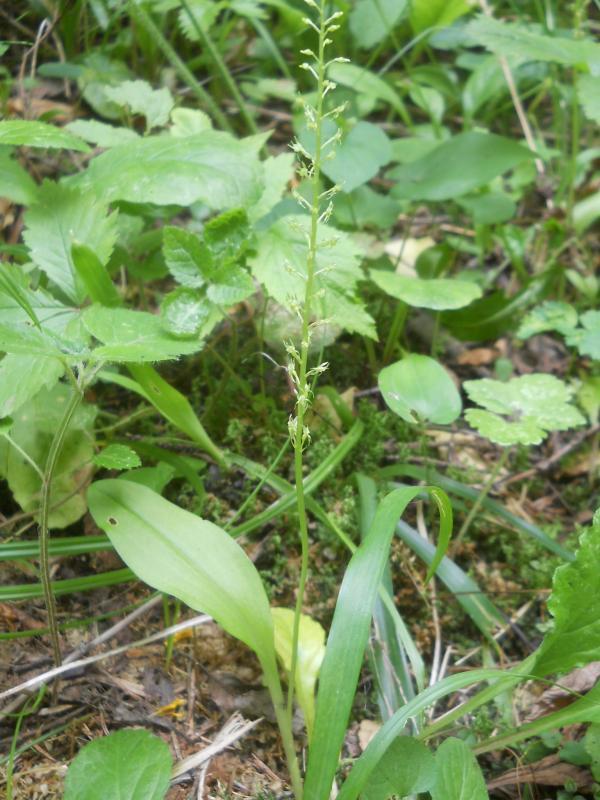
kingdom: Plantae
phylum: Tracheophyta
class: Liliopsida
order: Asparagales
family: Orchidaceae
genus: Malaxis
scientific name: Malaxis monophyllos
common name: White adder's-mouth
